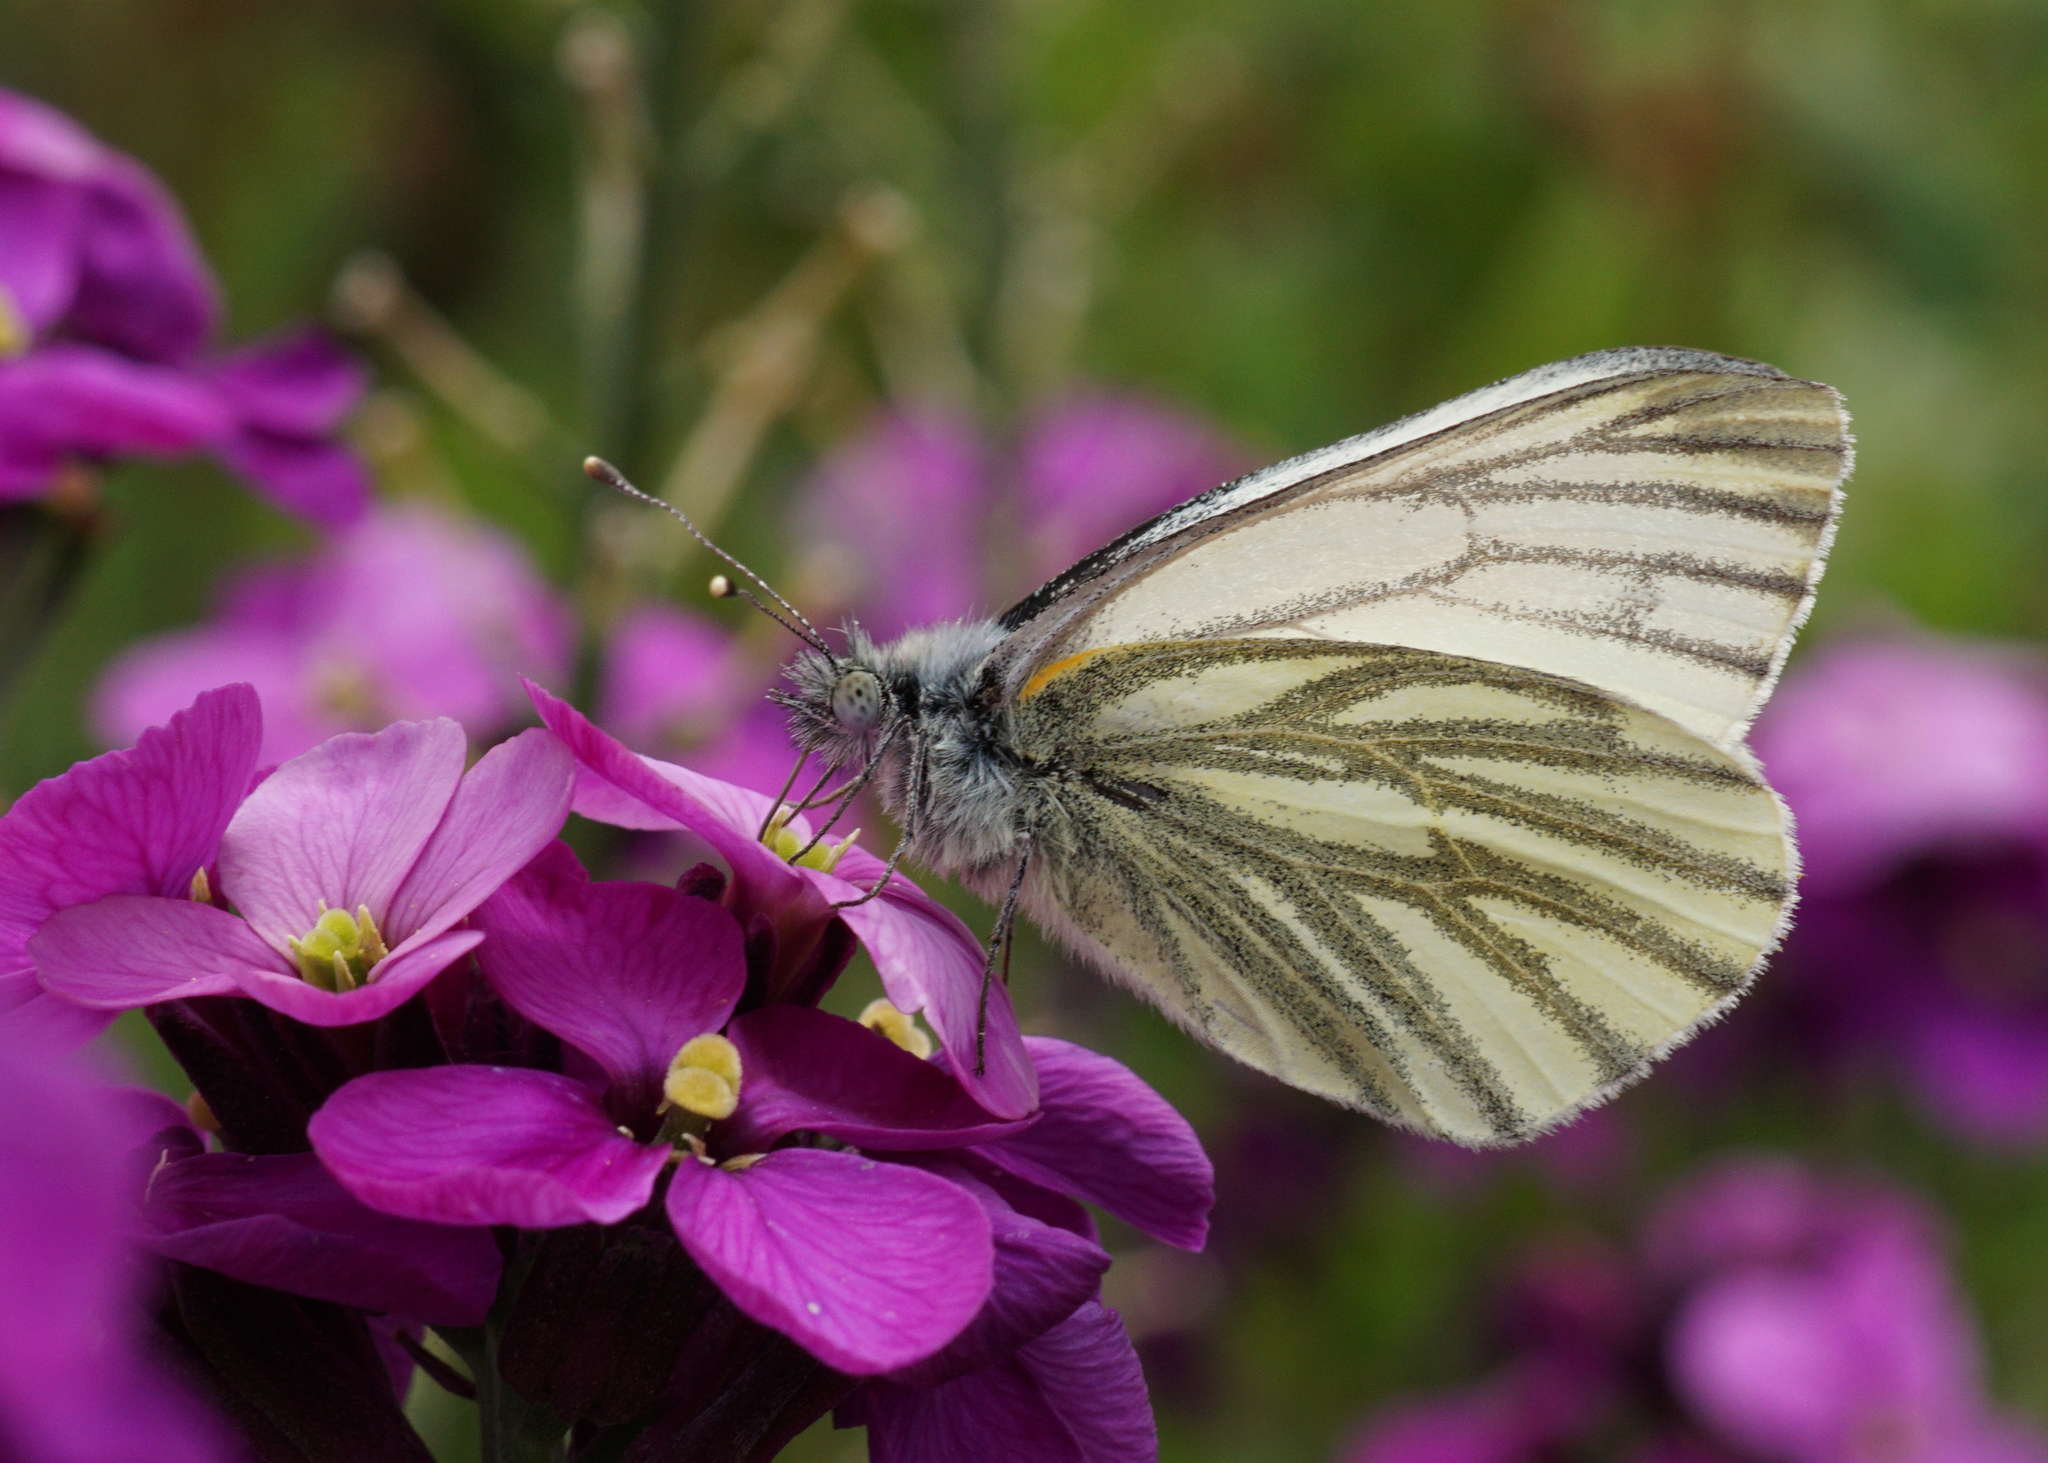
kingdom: Animalia
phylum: Arthropoda
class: Insecta
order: Lepidoptera
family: Pieridae
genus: Pieris
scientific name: Pieris napi
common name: Green-veined white
